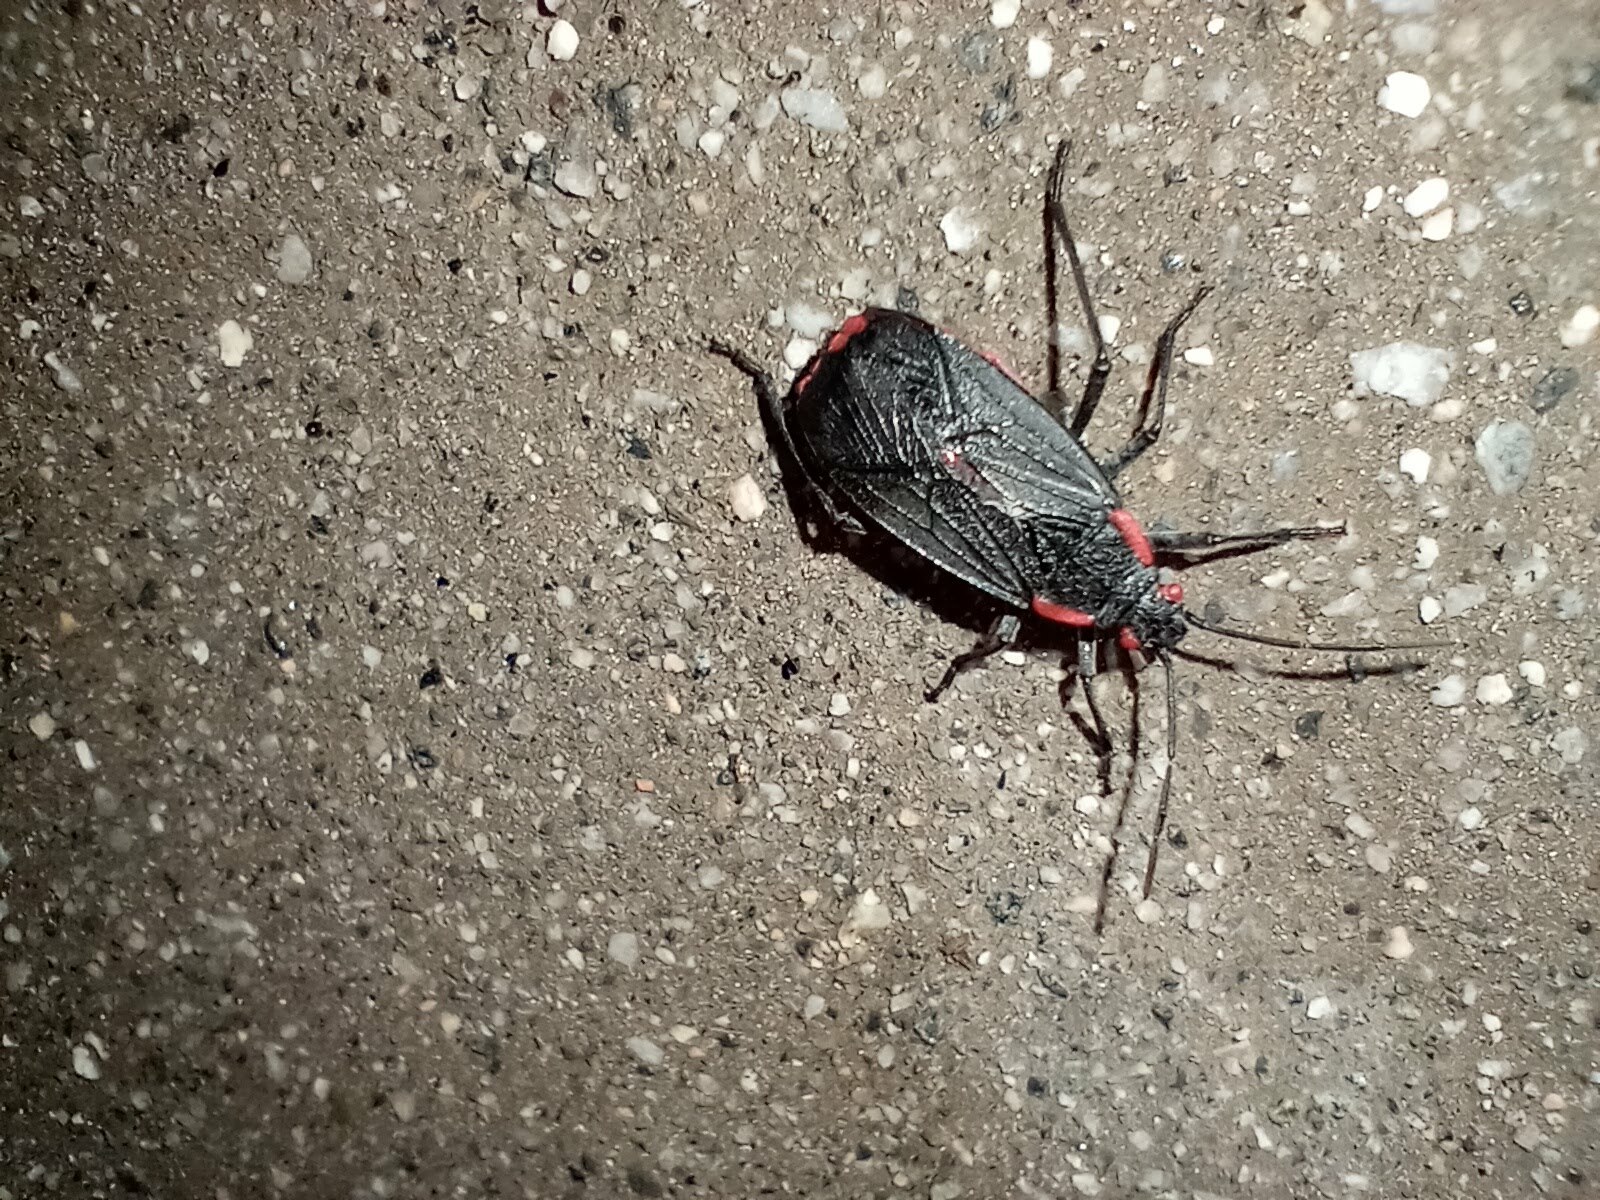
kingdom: Animalia
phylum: Arthropoda
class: Insecta
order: Hemiptera
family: Rhopalidae
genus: Jadera
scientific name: Jadera haematoloma
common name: Red-shouldered bug
